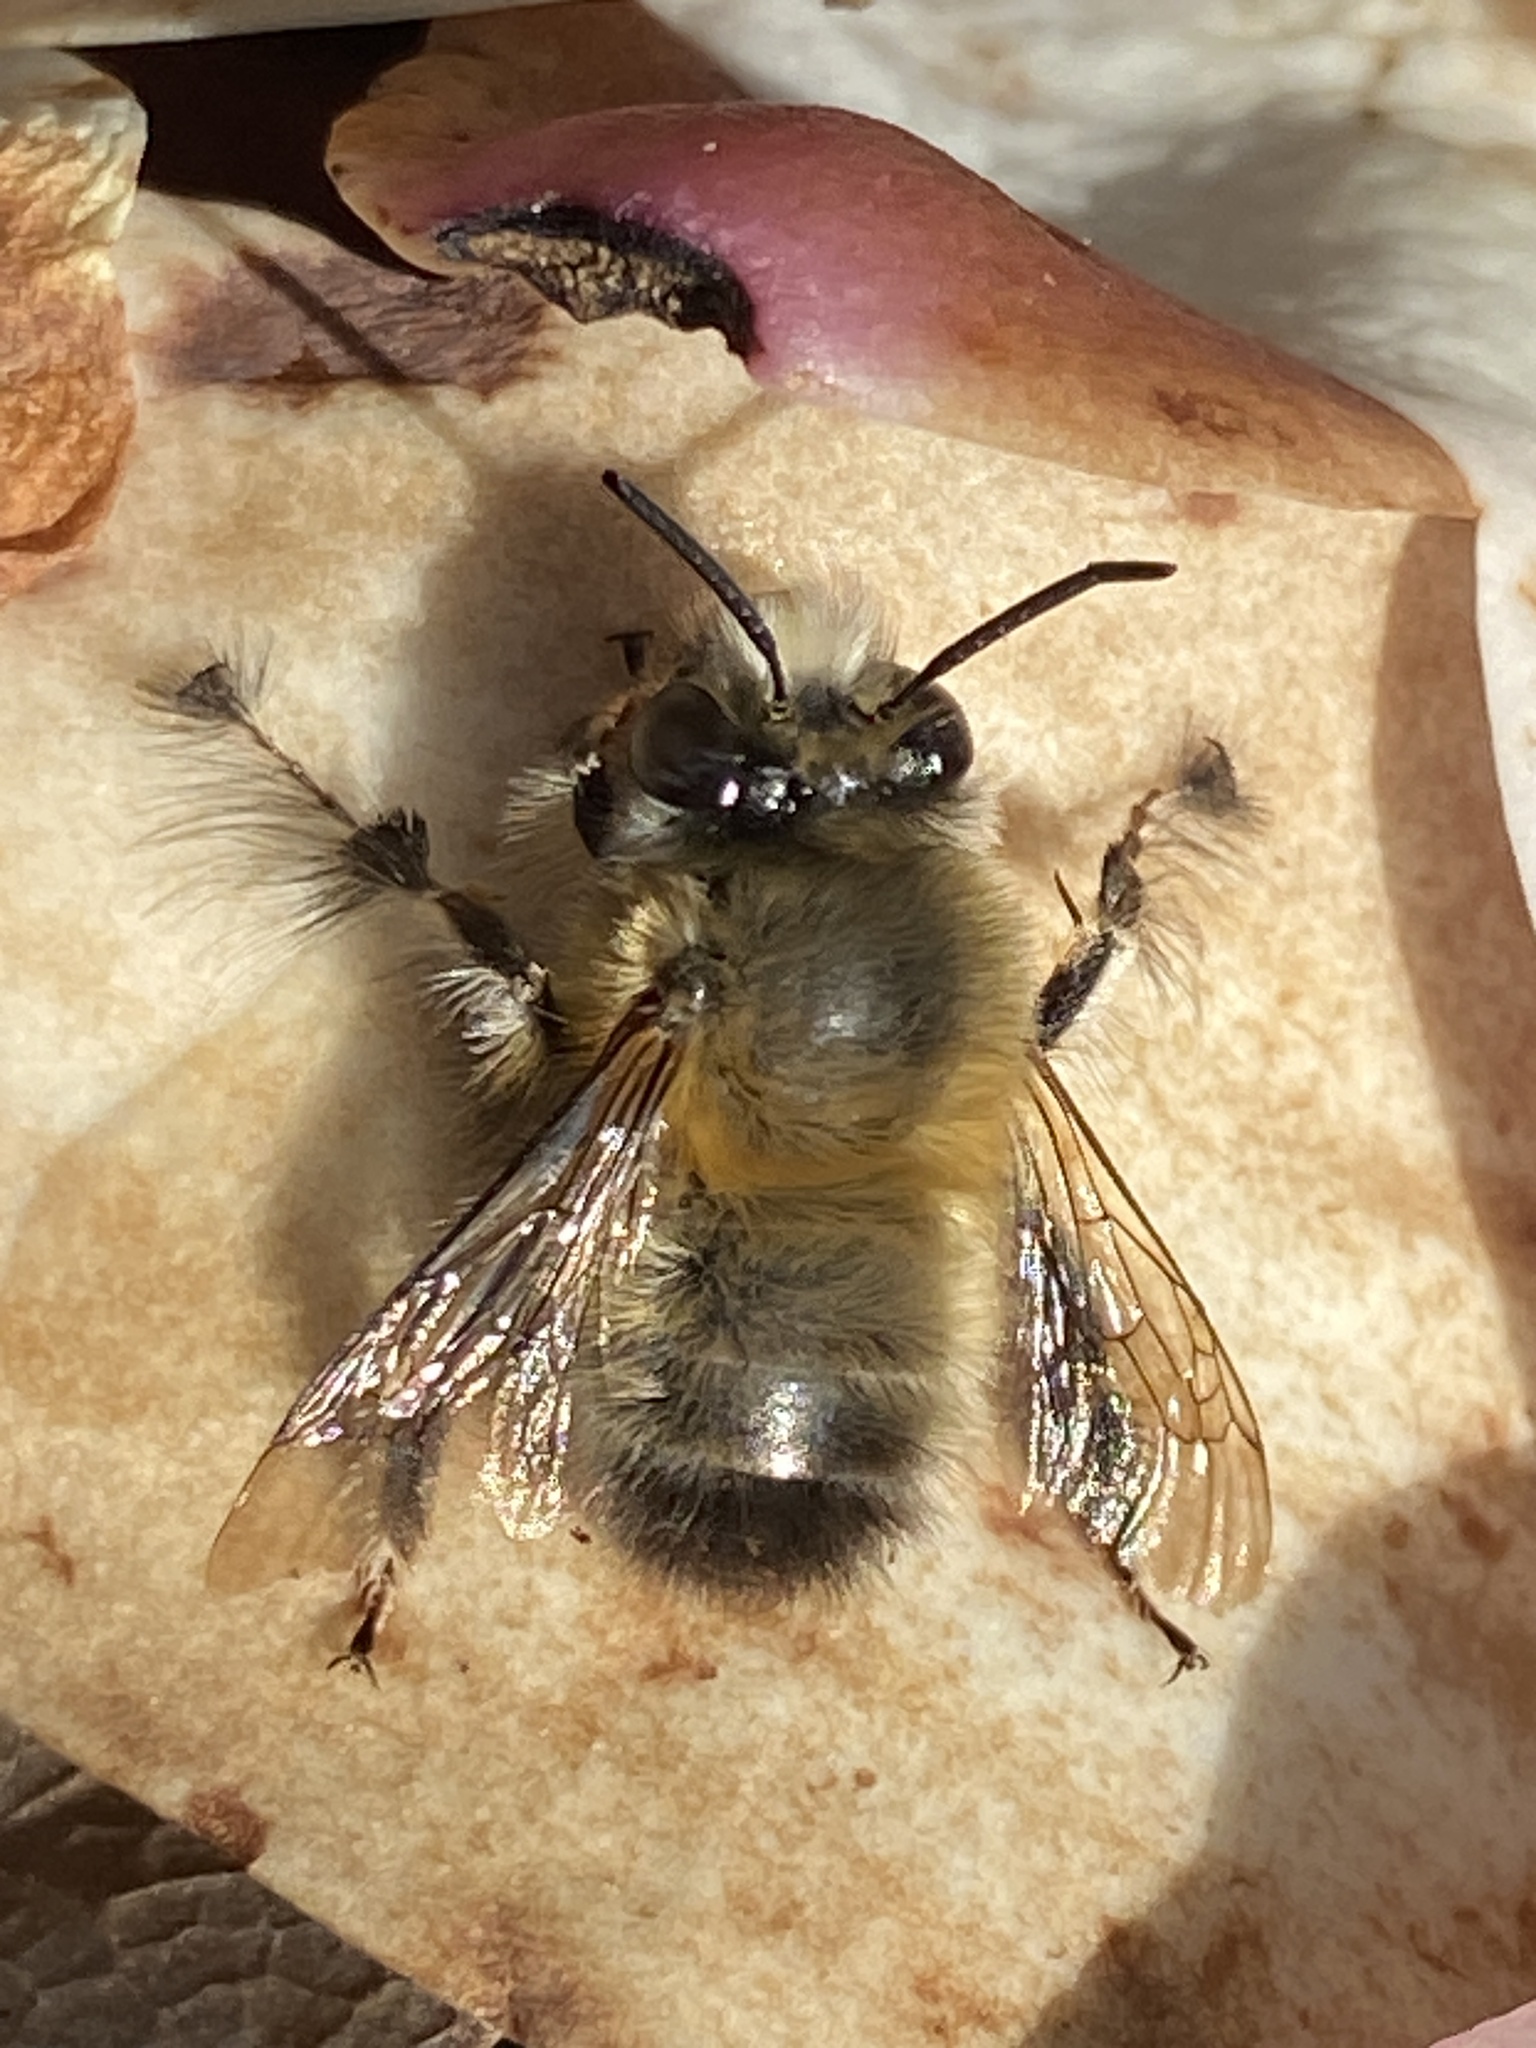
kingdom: Animalia
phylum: Arthropoda
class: Insecta
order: Hymenoptera
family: Apidae
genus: Anthophora
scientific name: Anthophora plumipes
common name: Hairy-footed flower bee
